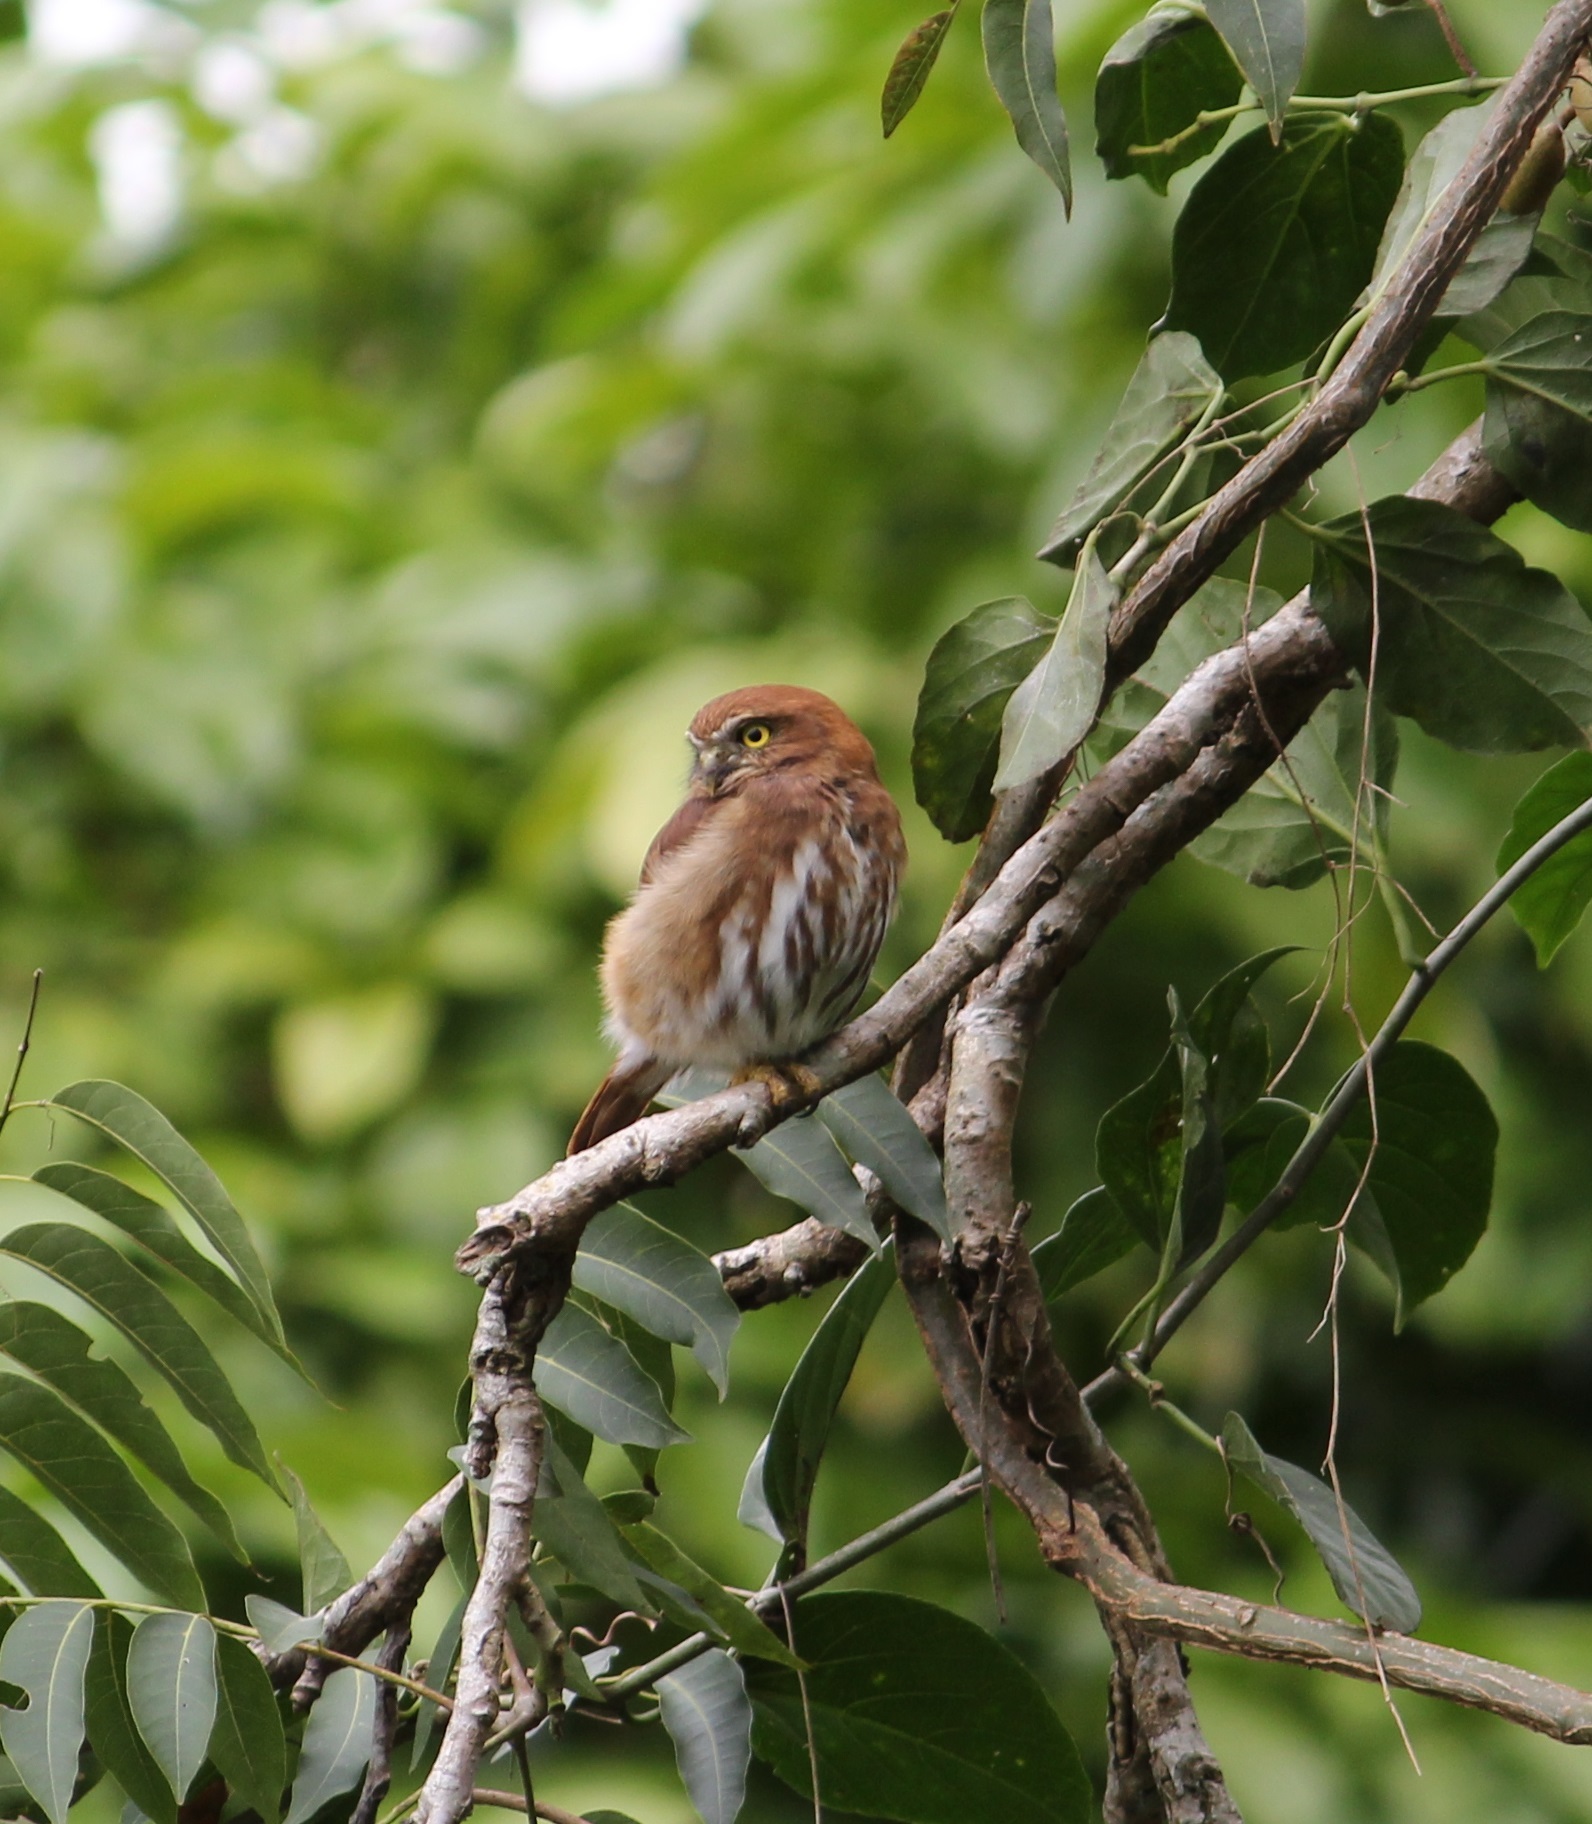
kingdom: Animalia
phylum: Chordata
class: Aves
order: Strigiformes
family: Strigidae
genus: Glaucidium
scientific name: Glaucidium brasilianum
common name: Ferruginous pygmy-owl
